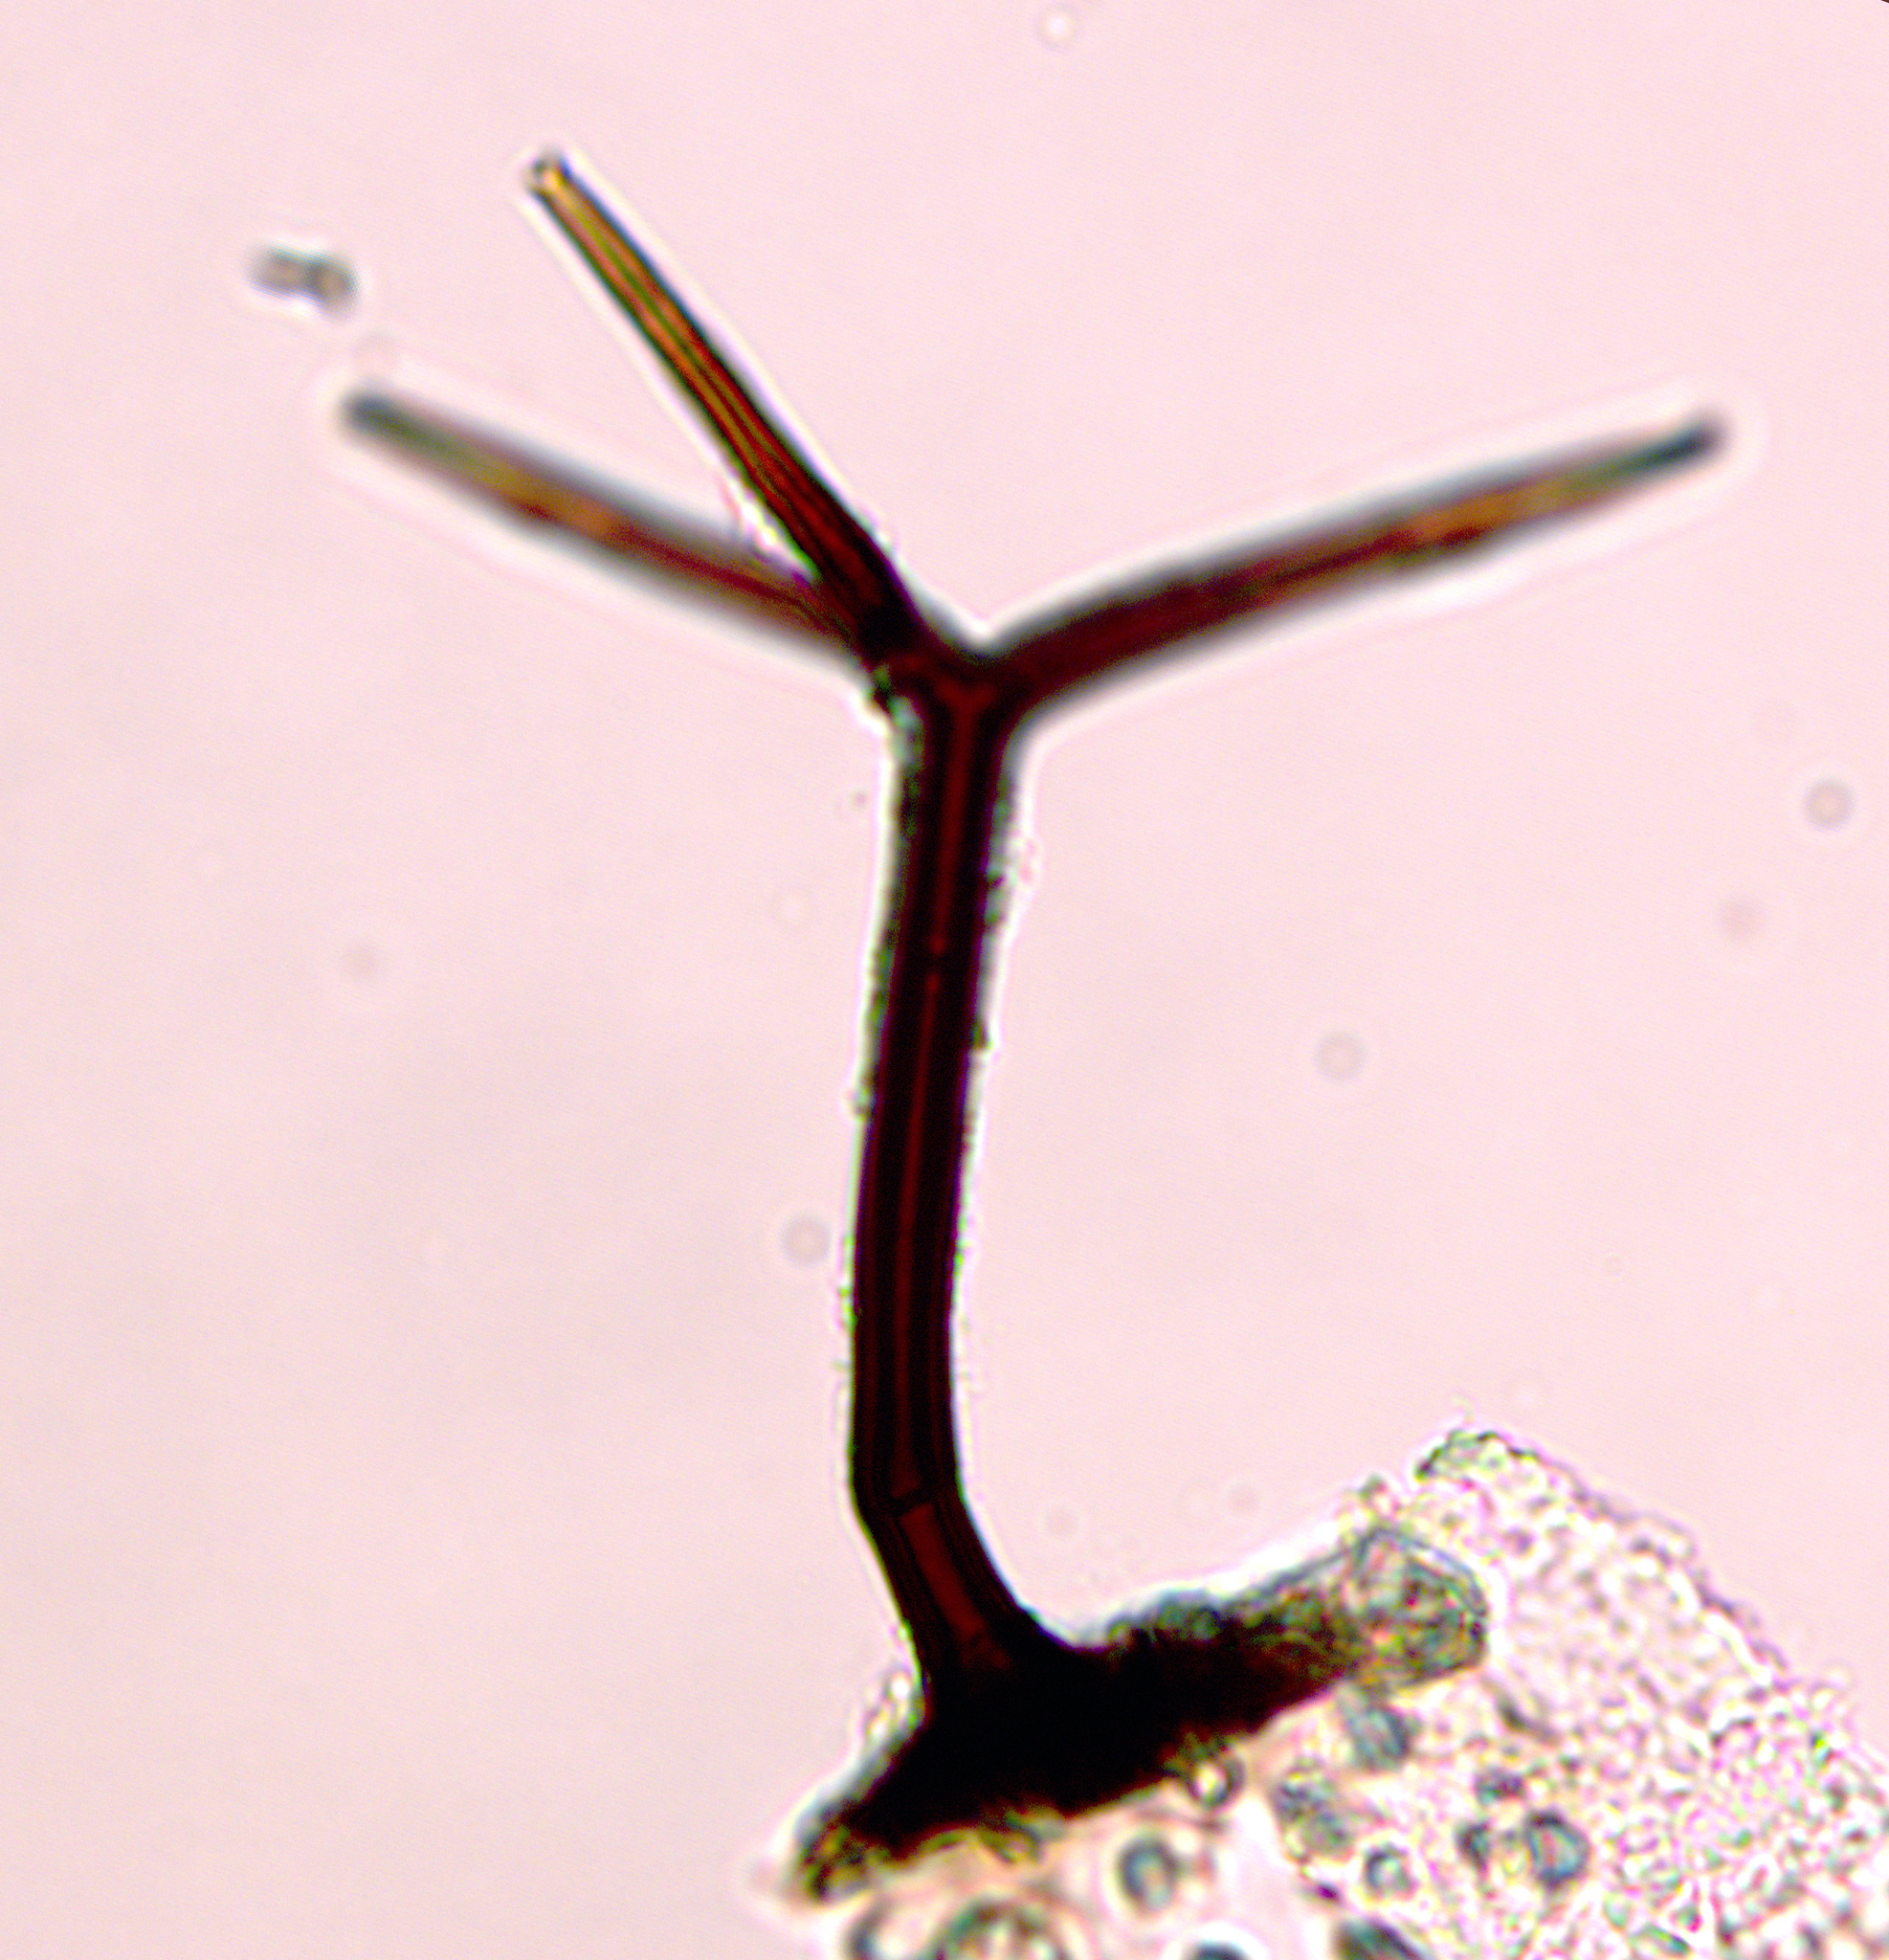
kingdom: Fungi
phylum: Ascomycota
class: Sordariomycetes
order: Xylariales
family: Microdochiaceae
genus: Gyrothrix
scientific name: Gyrothrix verticiclada
